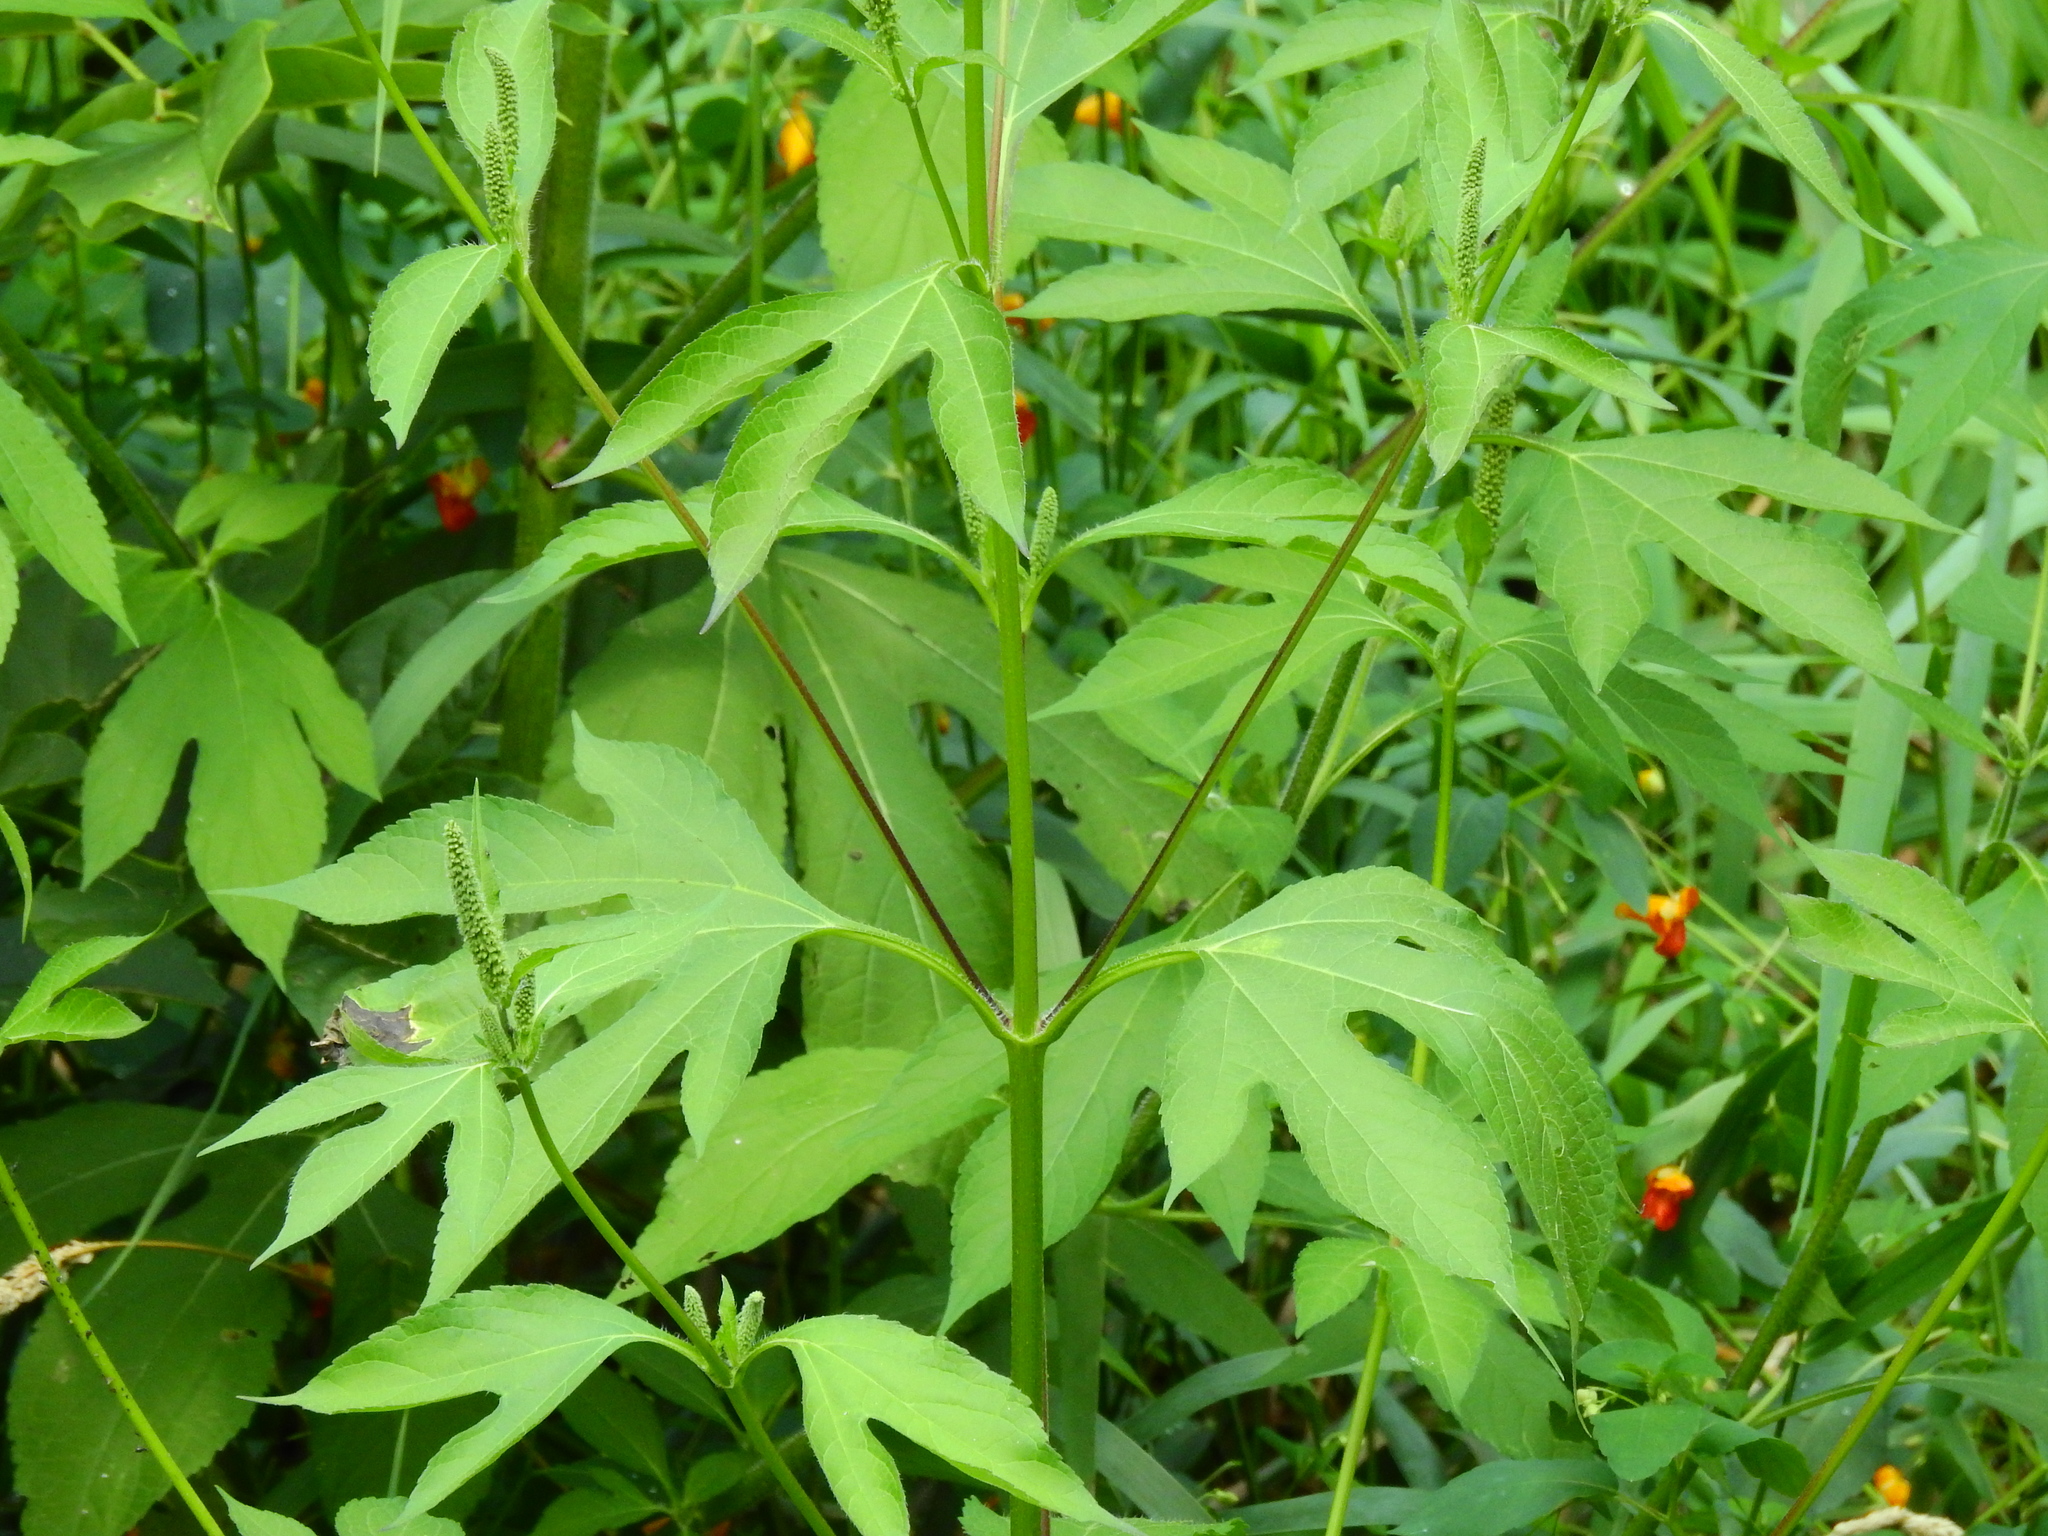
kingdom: Plantae
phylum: Tracheophyta
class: Magnoliopsida
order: Asterales
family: Asteraceae
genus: Ambrosia
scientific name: Ambrosia trifida
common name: Giant ragweed
